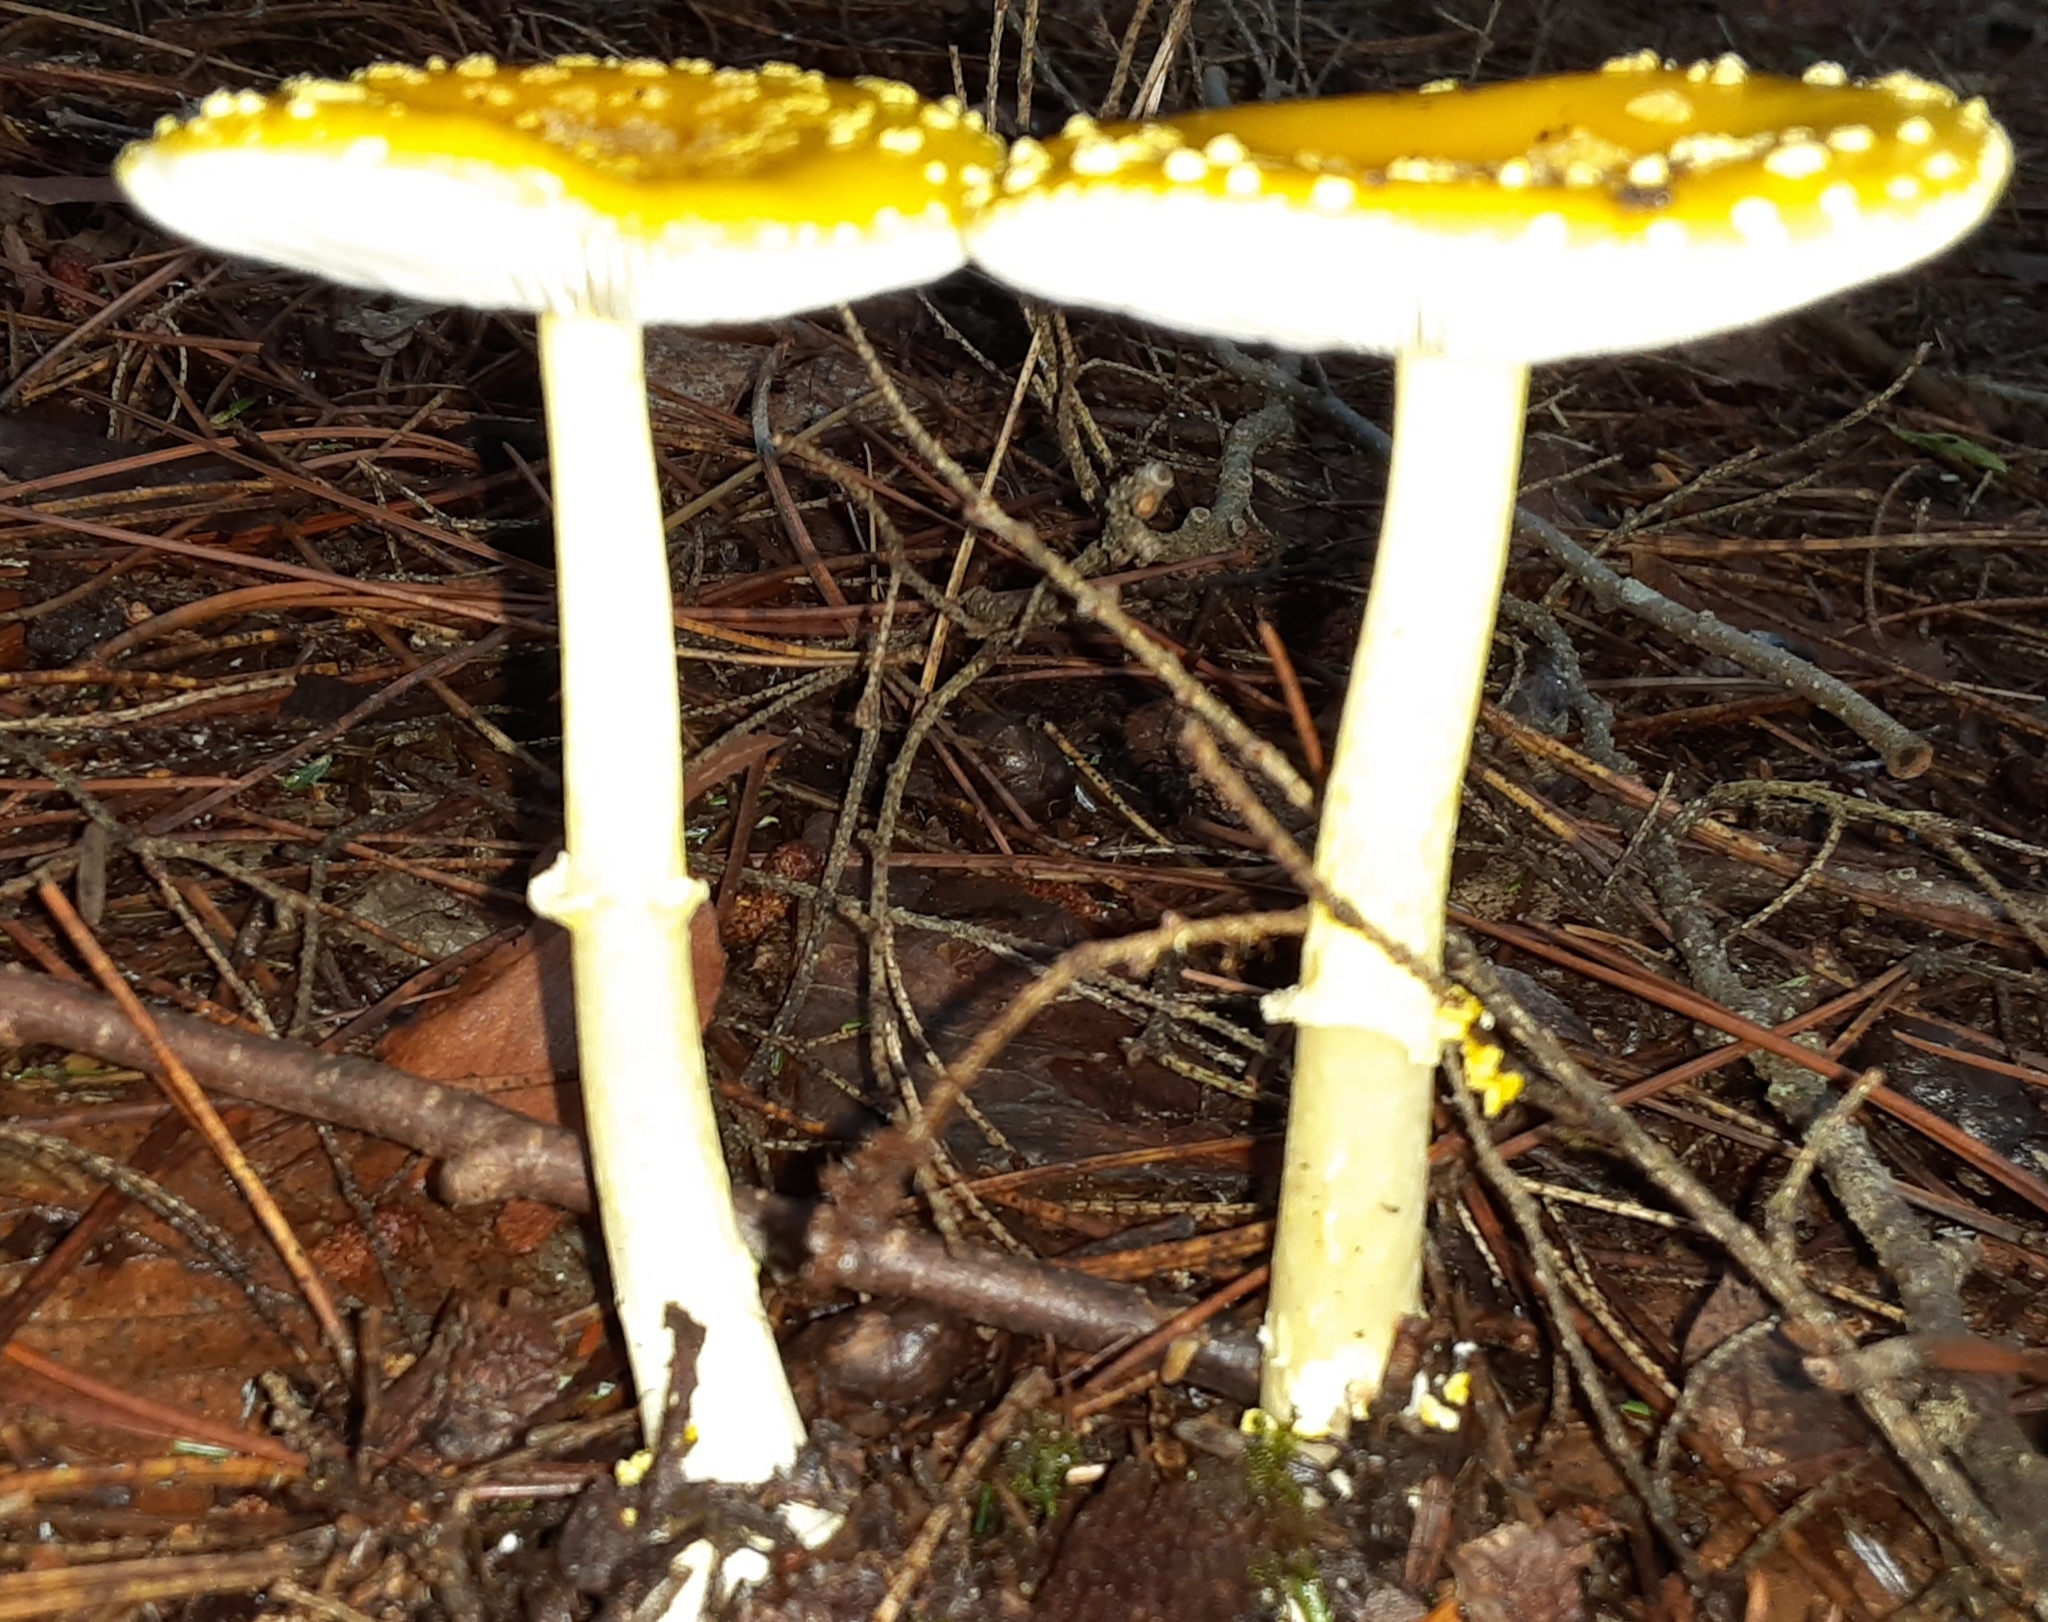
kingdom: Fungi
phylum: Basidiomycota
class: Agaricomycetes
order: Agaricales
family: Amanitaceae
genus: Amanita
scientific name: Amanita frostiana
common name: Frost's amanita
